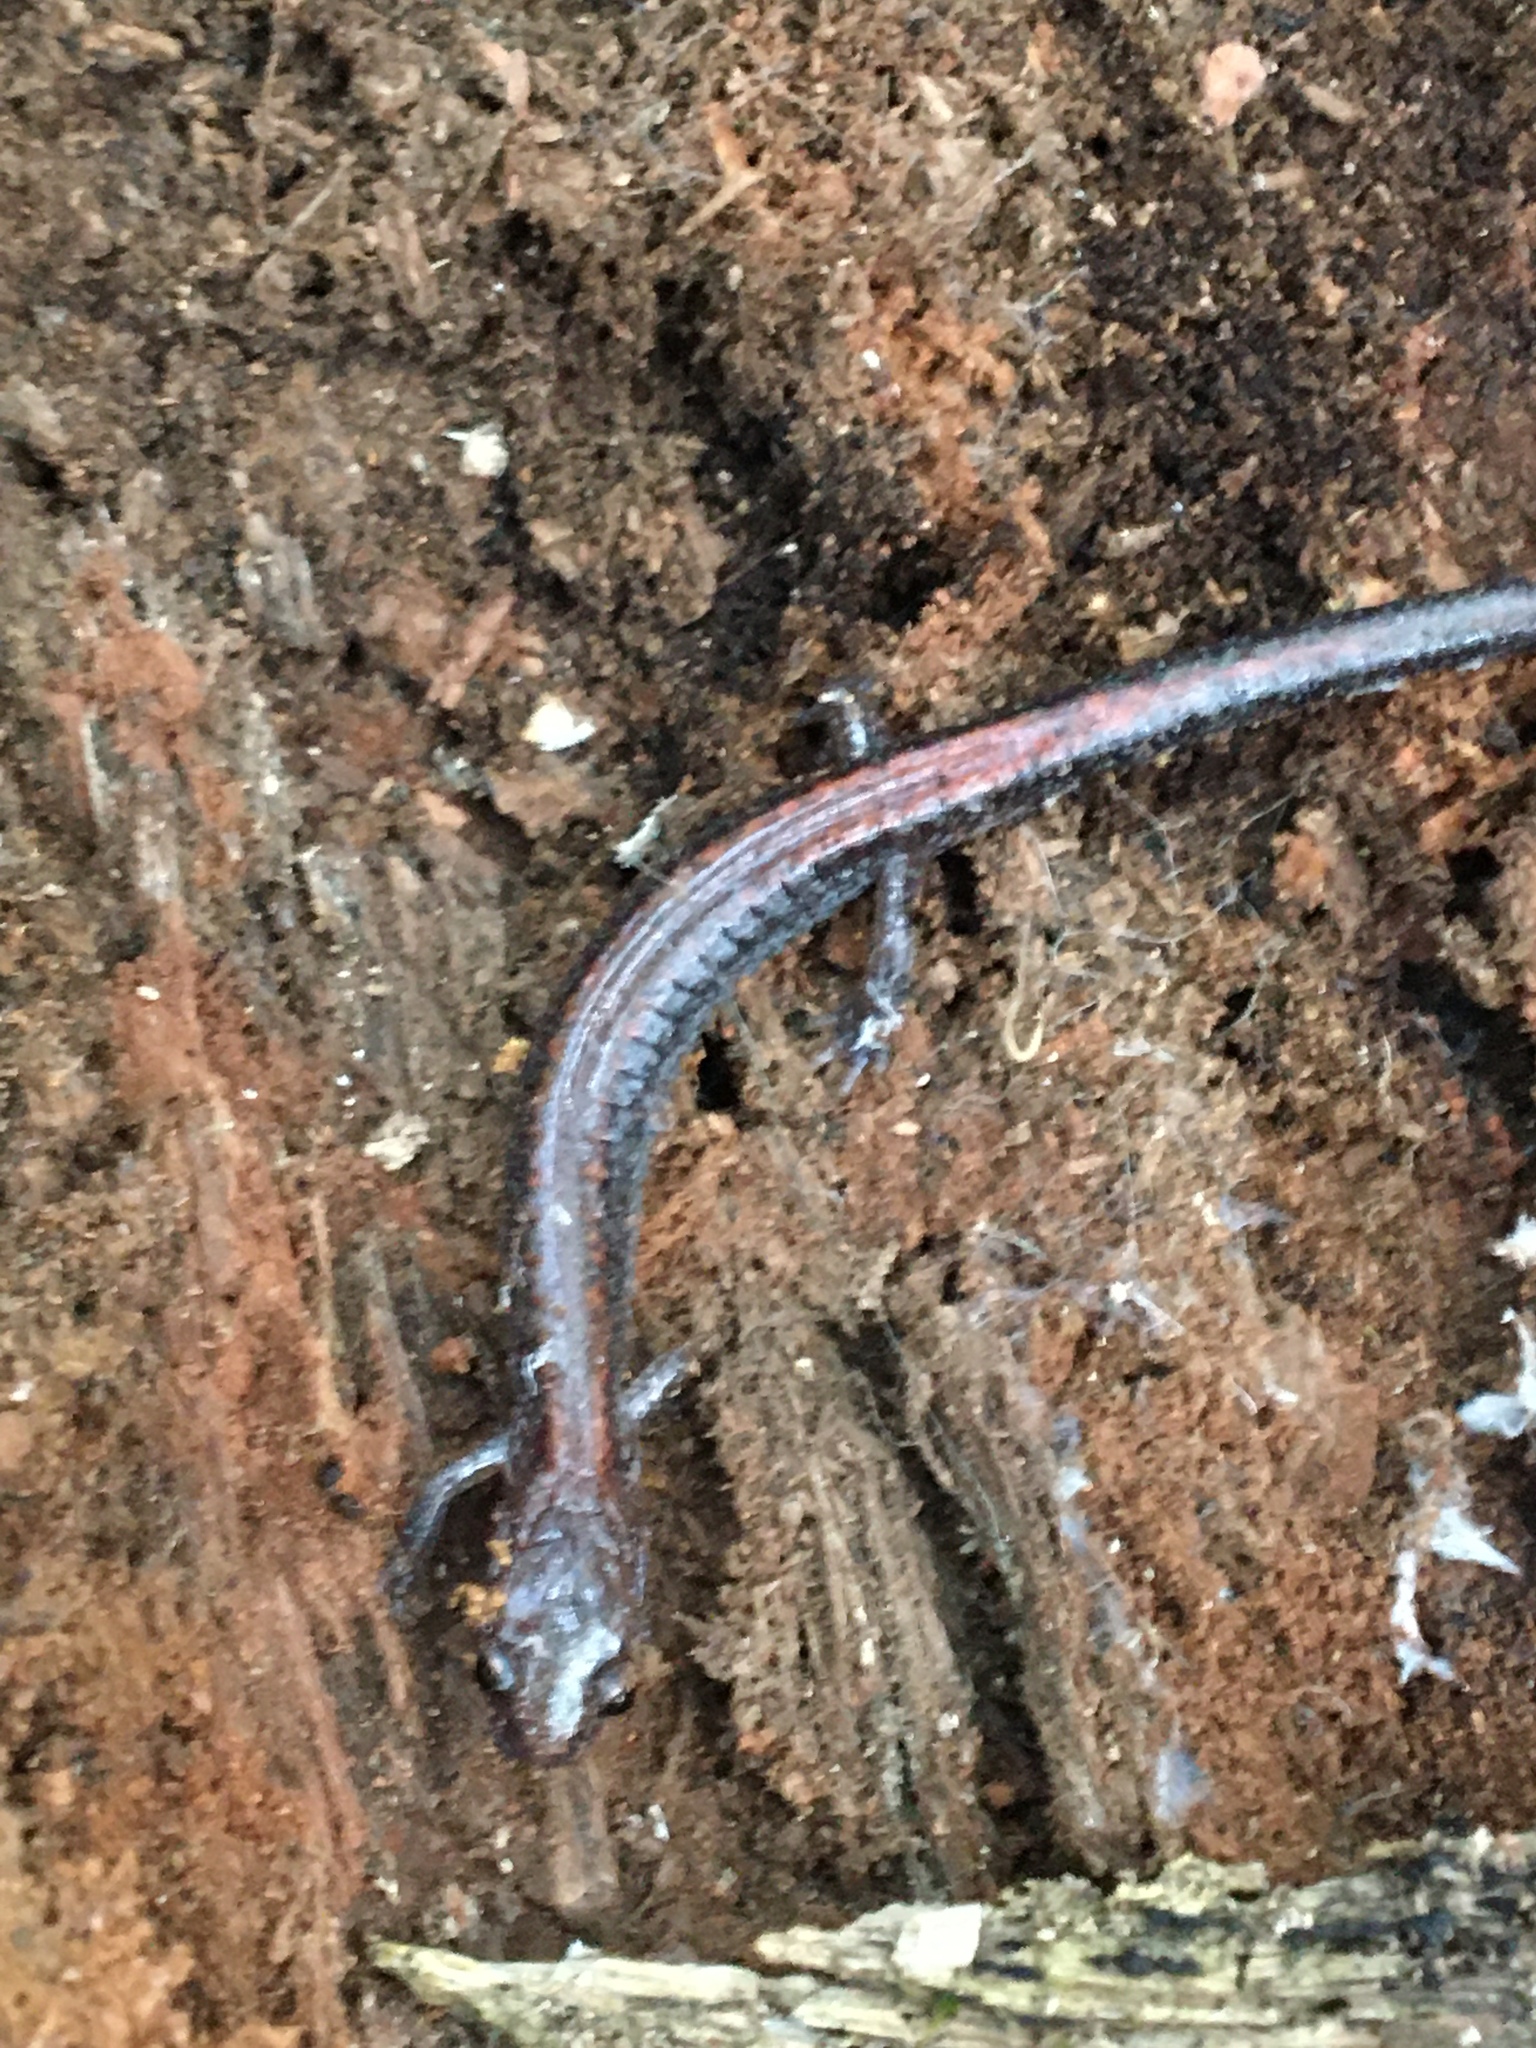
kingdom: Animalia
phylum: Chordata
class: Amphibia
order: Caudata
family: Plethodontidae
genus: Plethodon
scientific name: Plethodon cinereus
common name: Redback salamander
